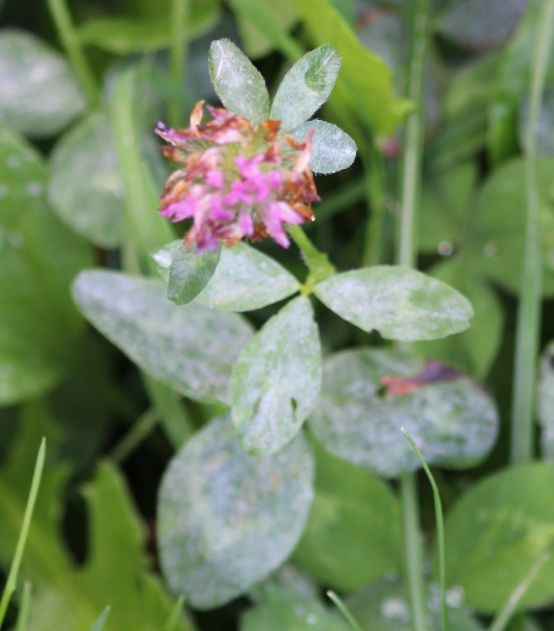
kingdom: Plantae
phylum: Tracheophyta
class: Magnoliopsida
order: Fabales
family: Fabaceae
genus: Trifolium
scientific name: Trifolium pratense
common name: Red clover
